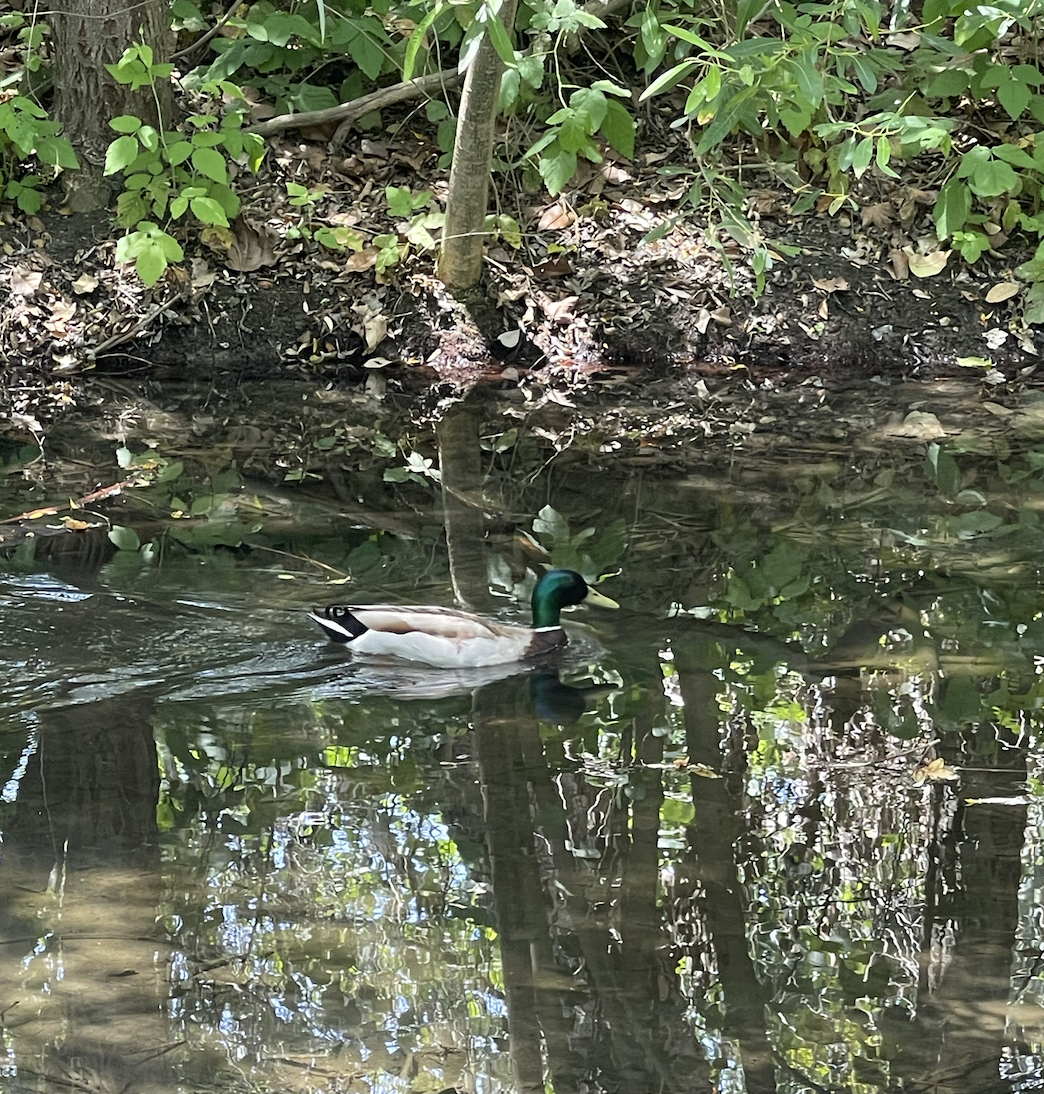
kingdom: Animalia
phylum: Chordata
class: Aves
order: Anseriformes
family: Anatidae
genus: Anas
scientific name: Anas platyrhynchos
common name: Mallard
